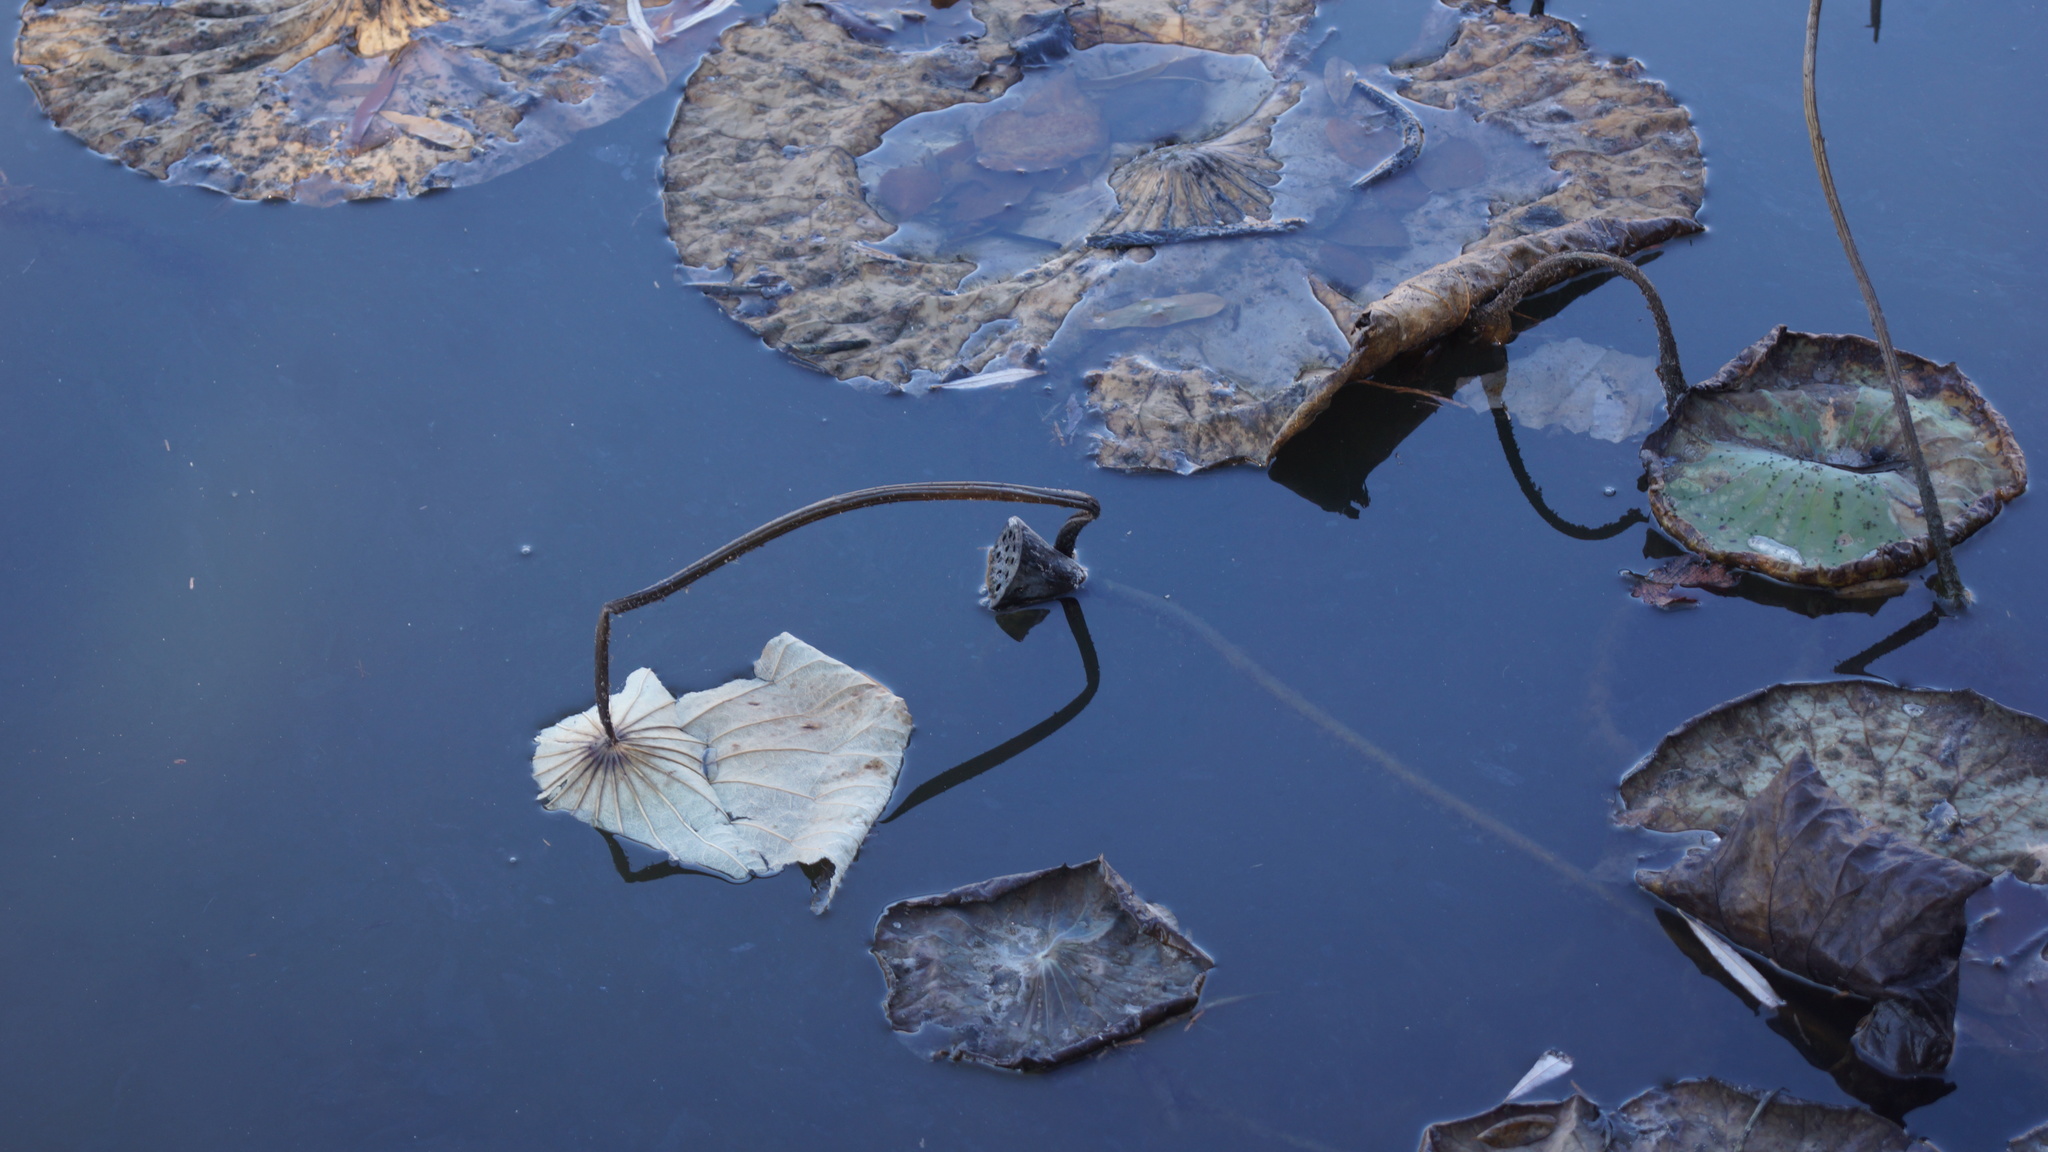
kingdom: Plantae
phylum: Tracheophyta
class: Magnoliopsida
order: Proteales
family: Nelumbonaceae
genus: Nelumbo
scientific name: Nelumbo nucifera
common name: Sacred lotus
